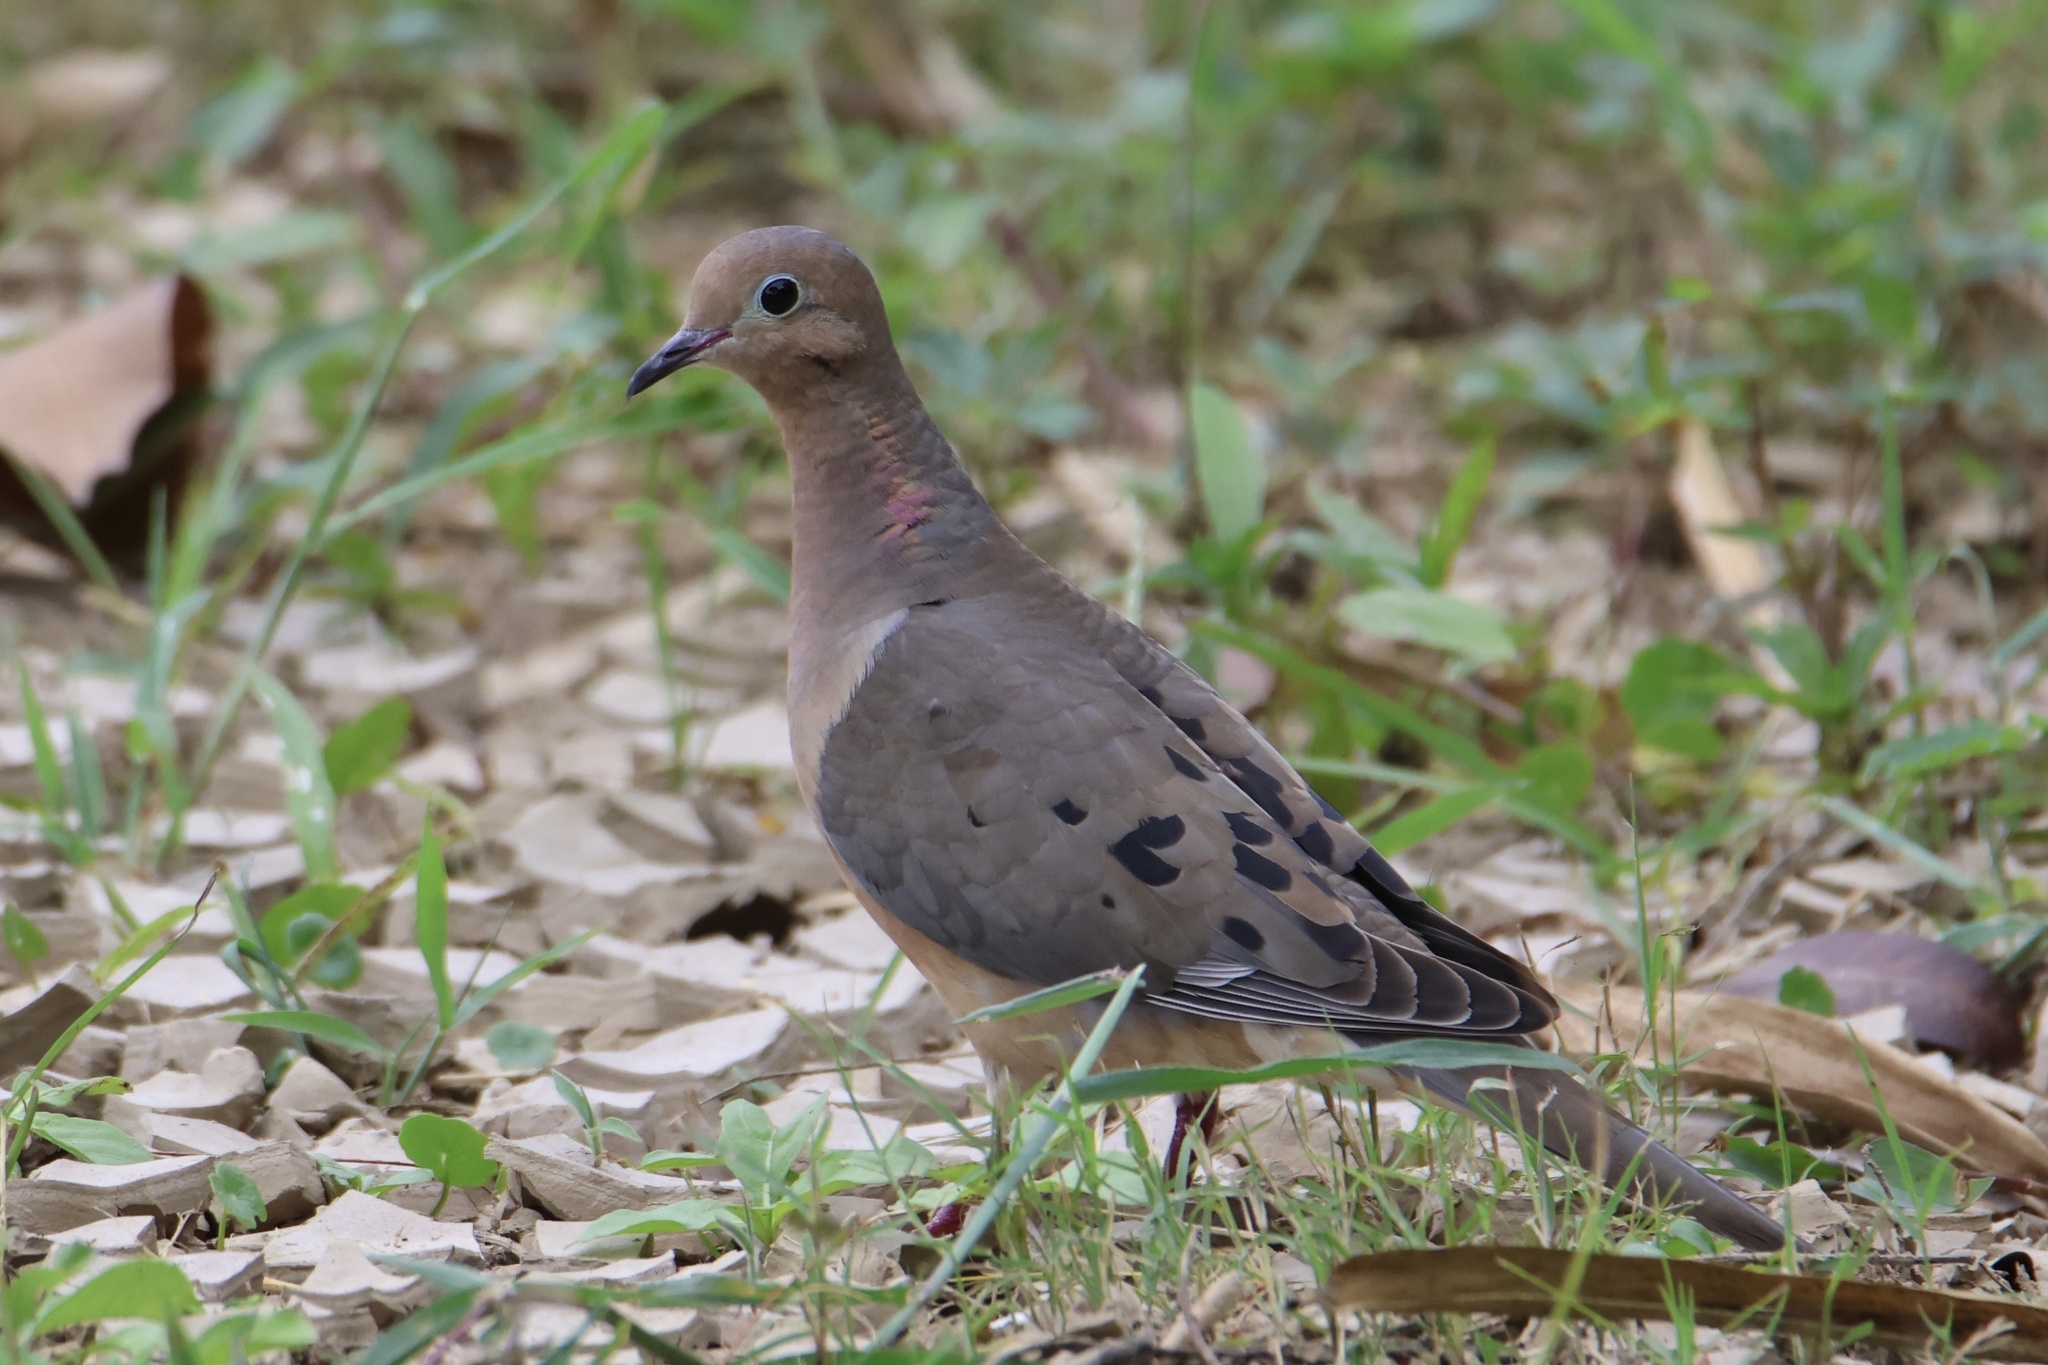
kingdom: Animalia
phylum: Chordata
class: Aves
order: Columbiformes
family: Columbidae
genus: Zenaida
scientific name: Zenaida macroura
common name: Mourning dove
